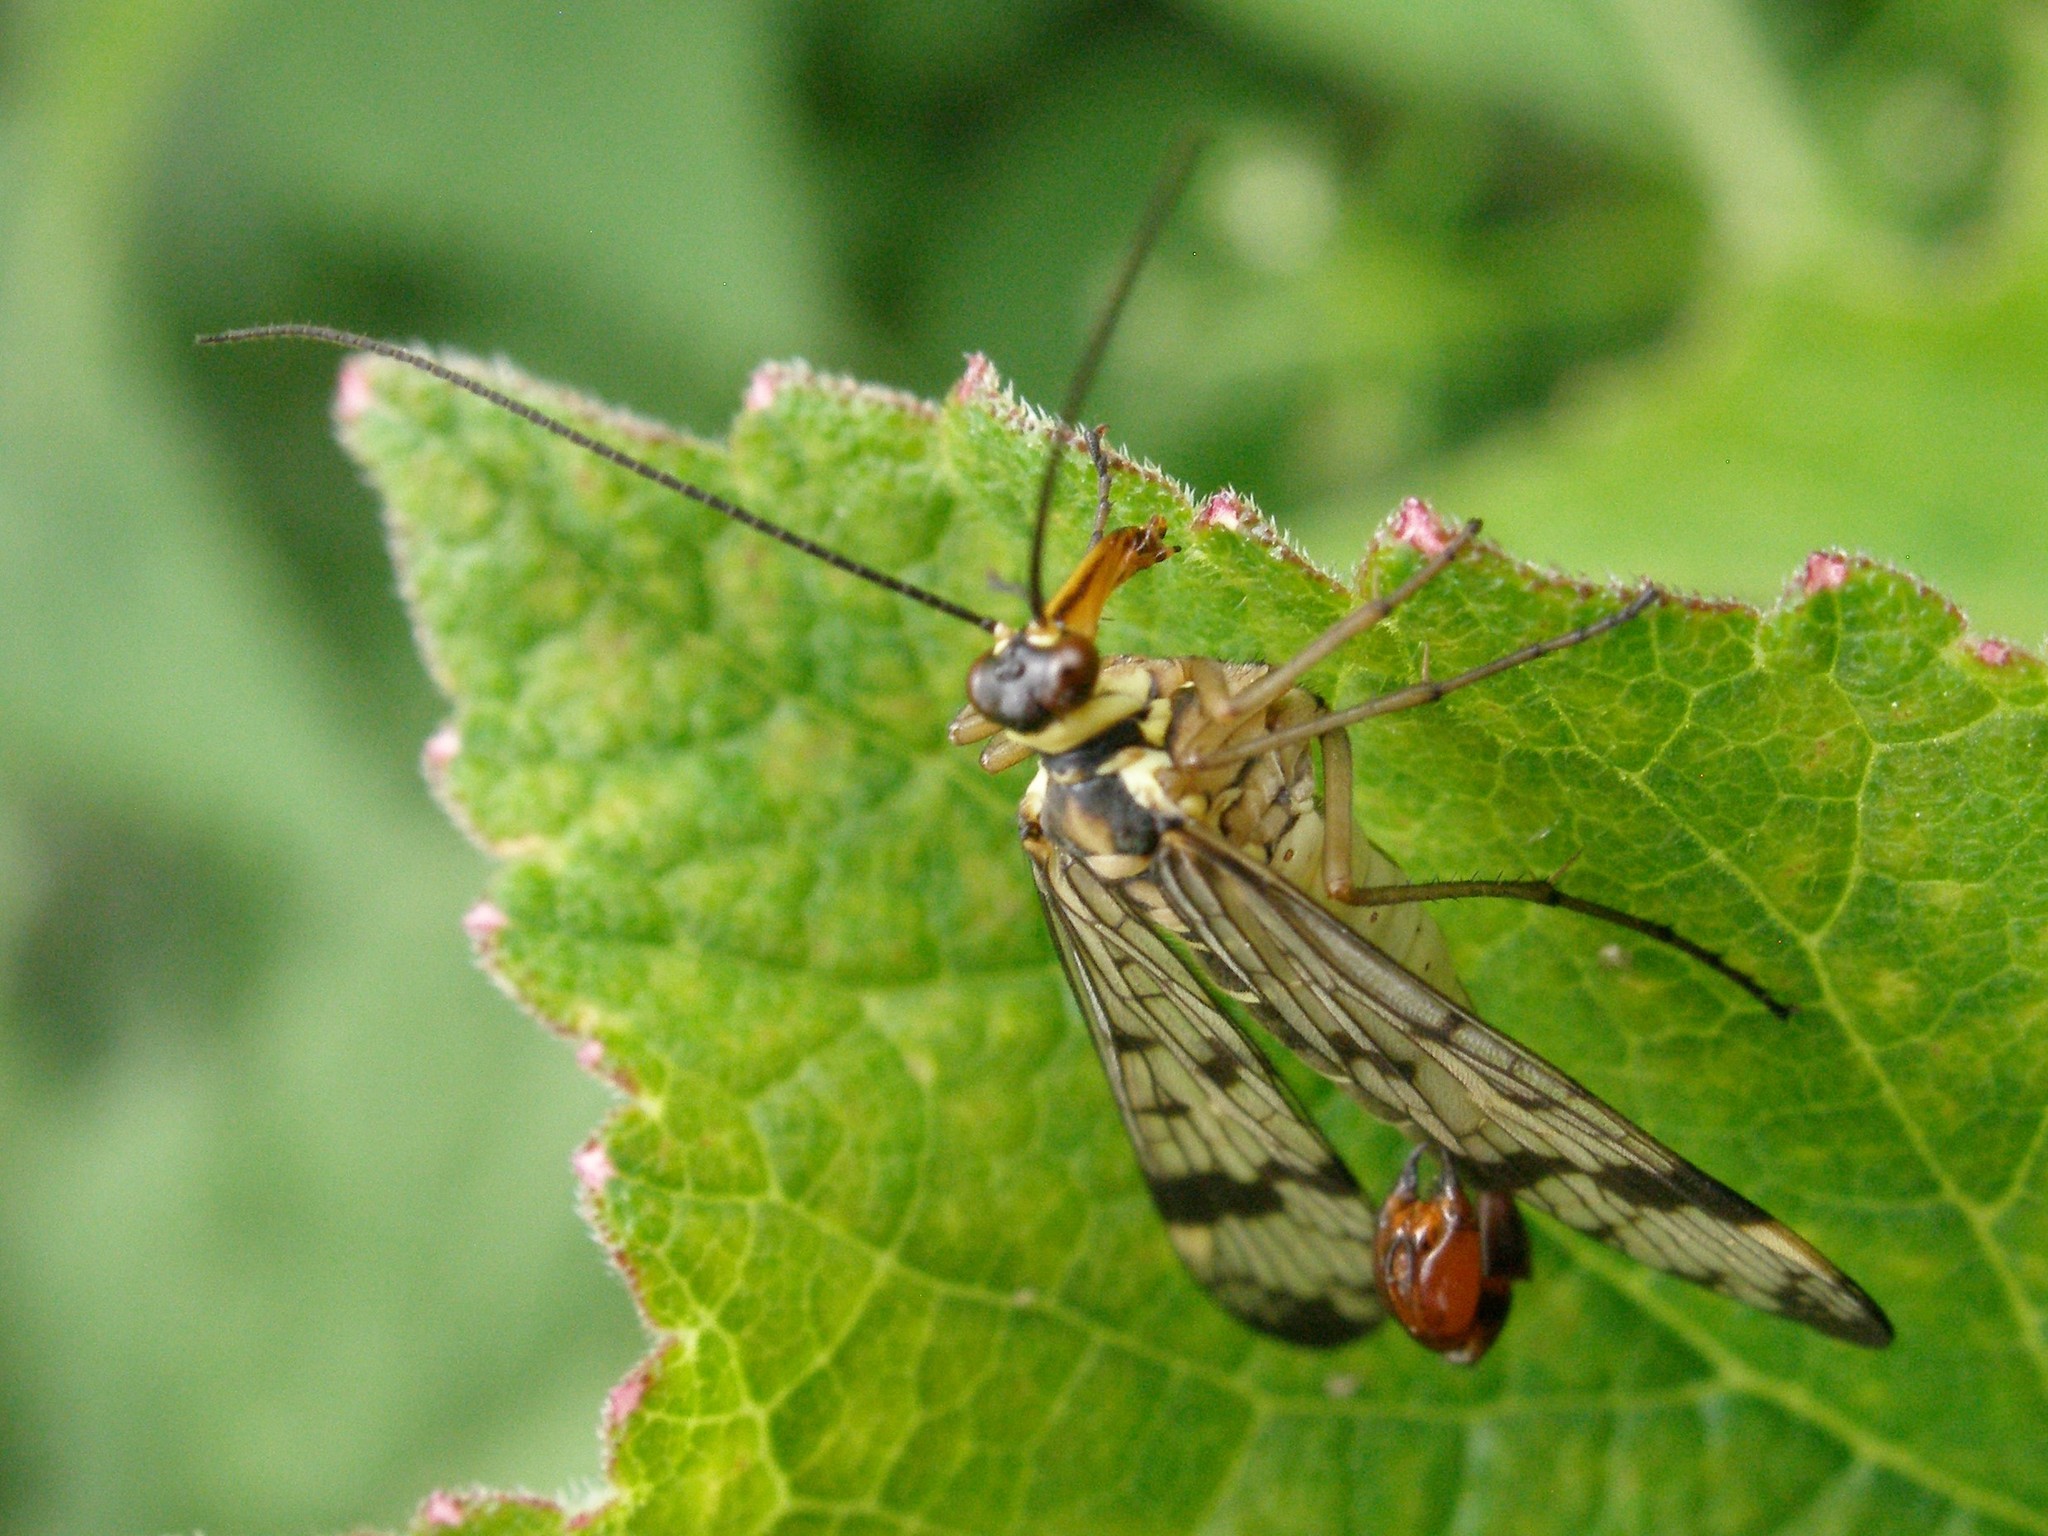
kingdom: Animalia
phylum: Arthropoda
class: Insecta
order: Mecoptera
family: Panorpidae
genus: Panorpa
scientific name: Panorpa communis
